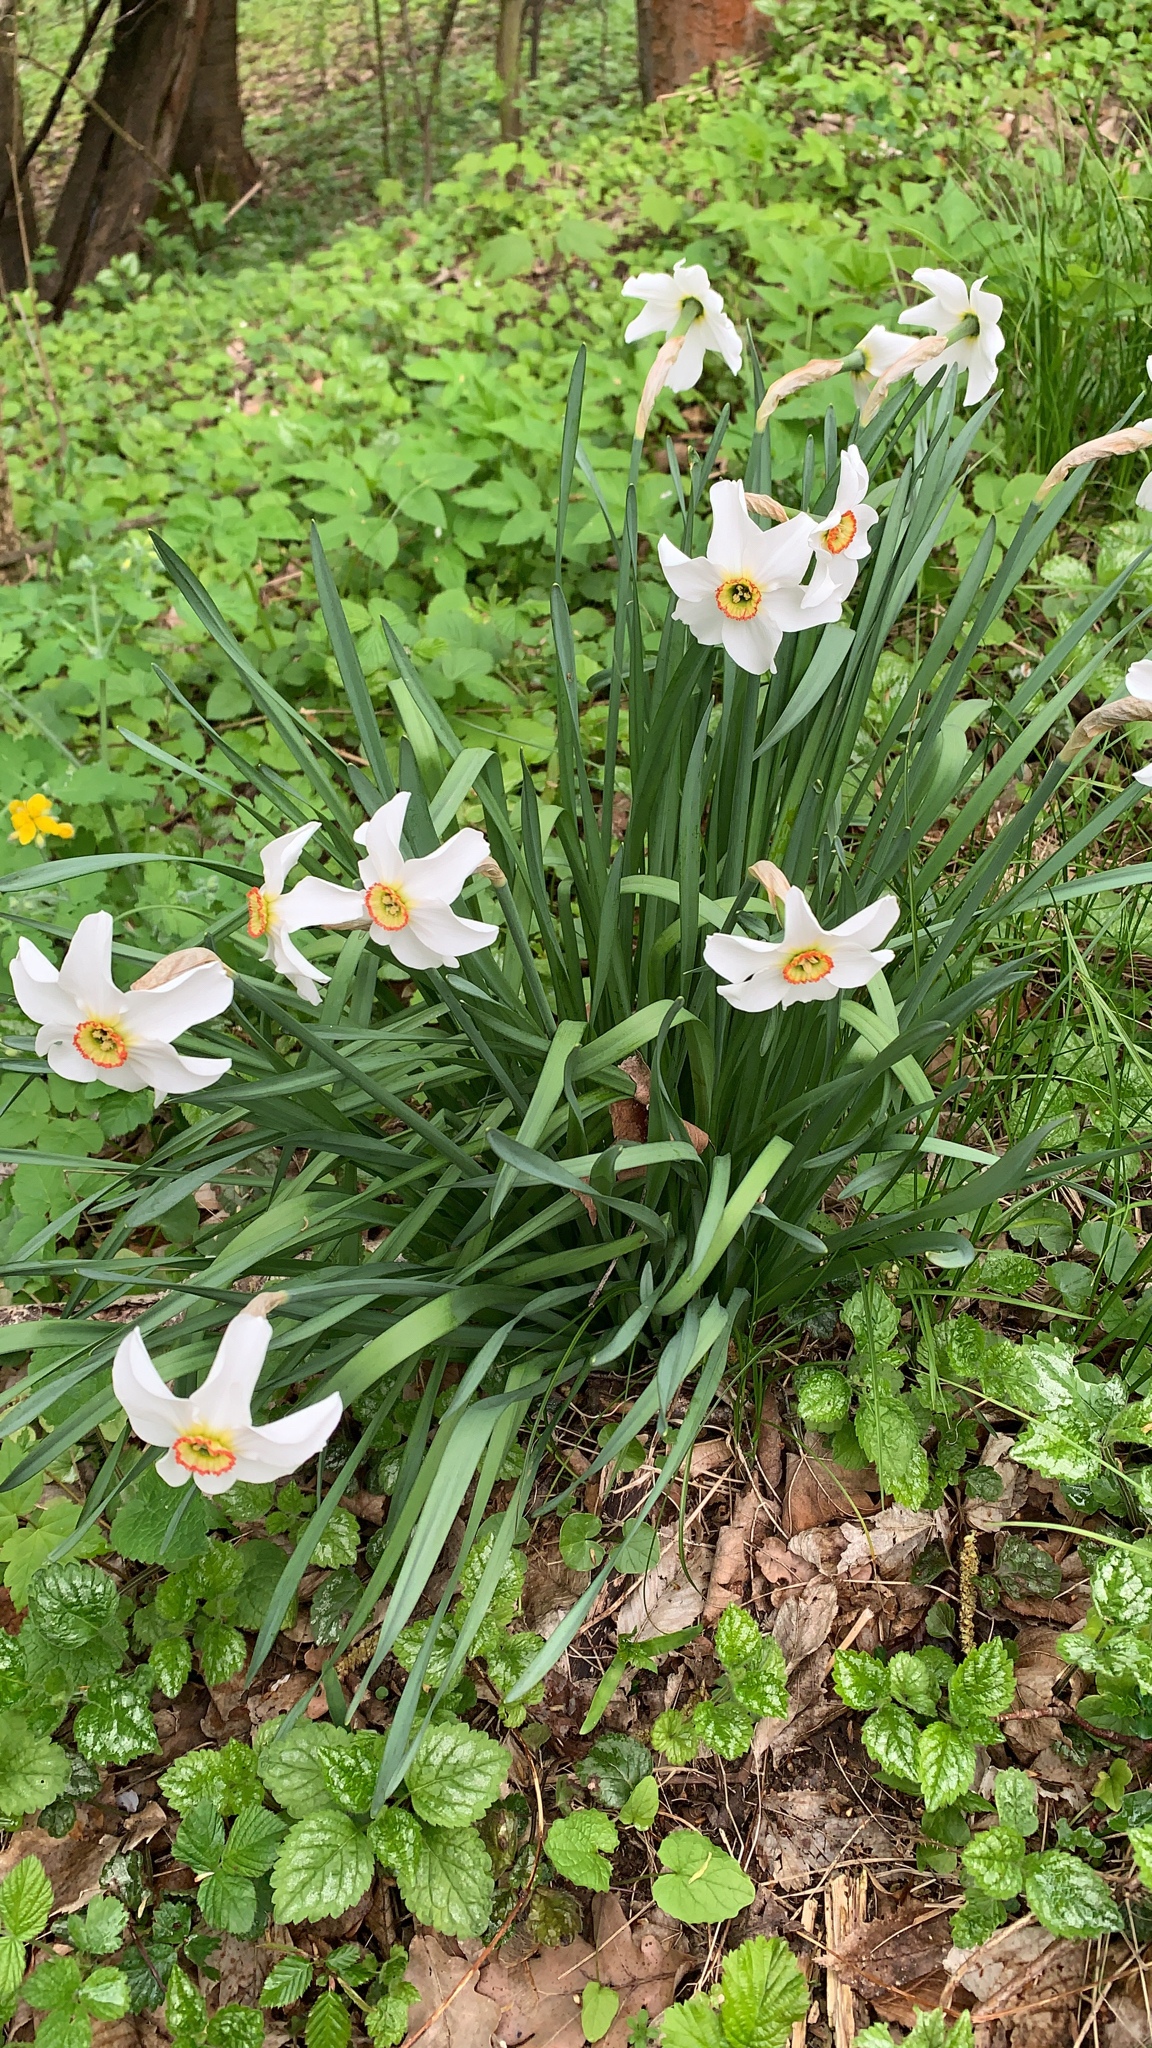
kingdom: Plantae
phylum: Tracheophyta
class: Liliopsida
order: Asparagales
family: Amaryllidaceae
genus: Narcissus
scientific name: Narcissus poeticus
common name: Pheasant's-eye daffodil
